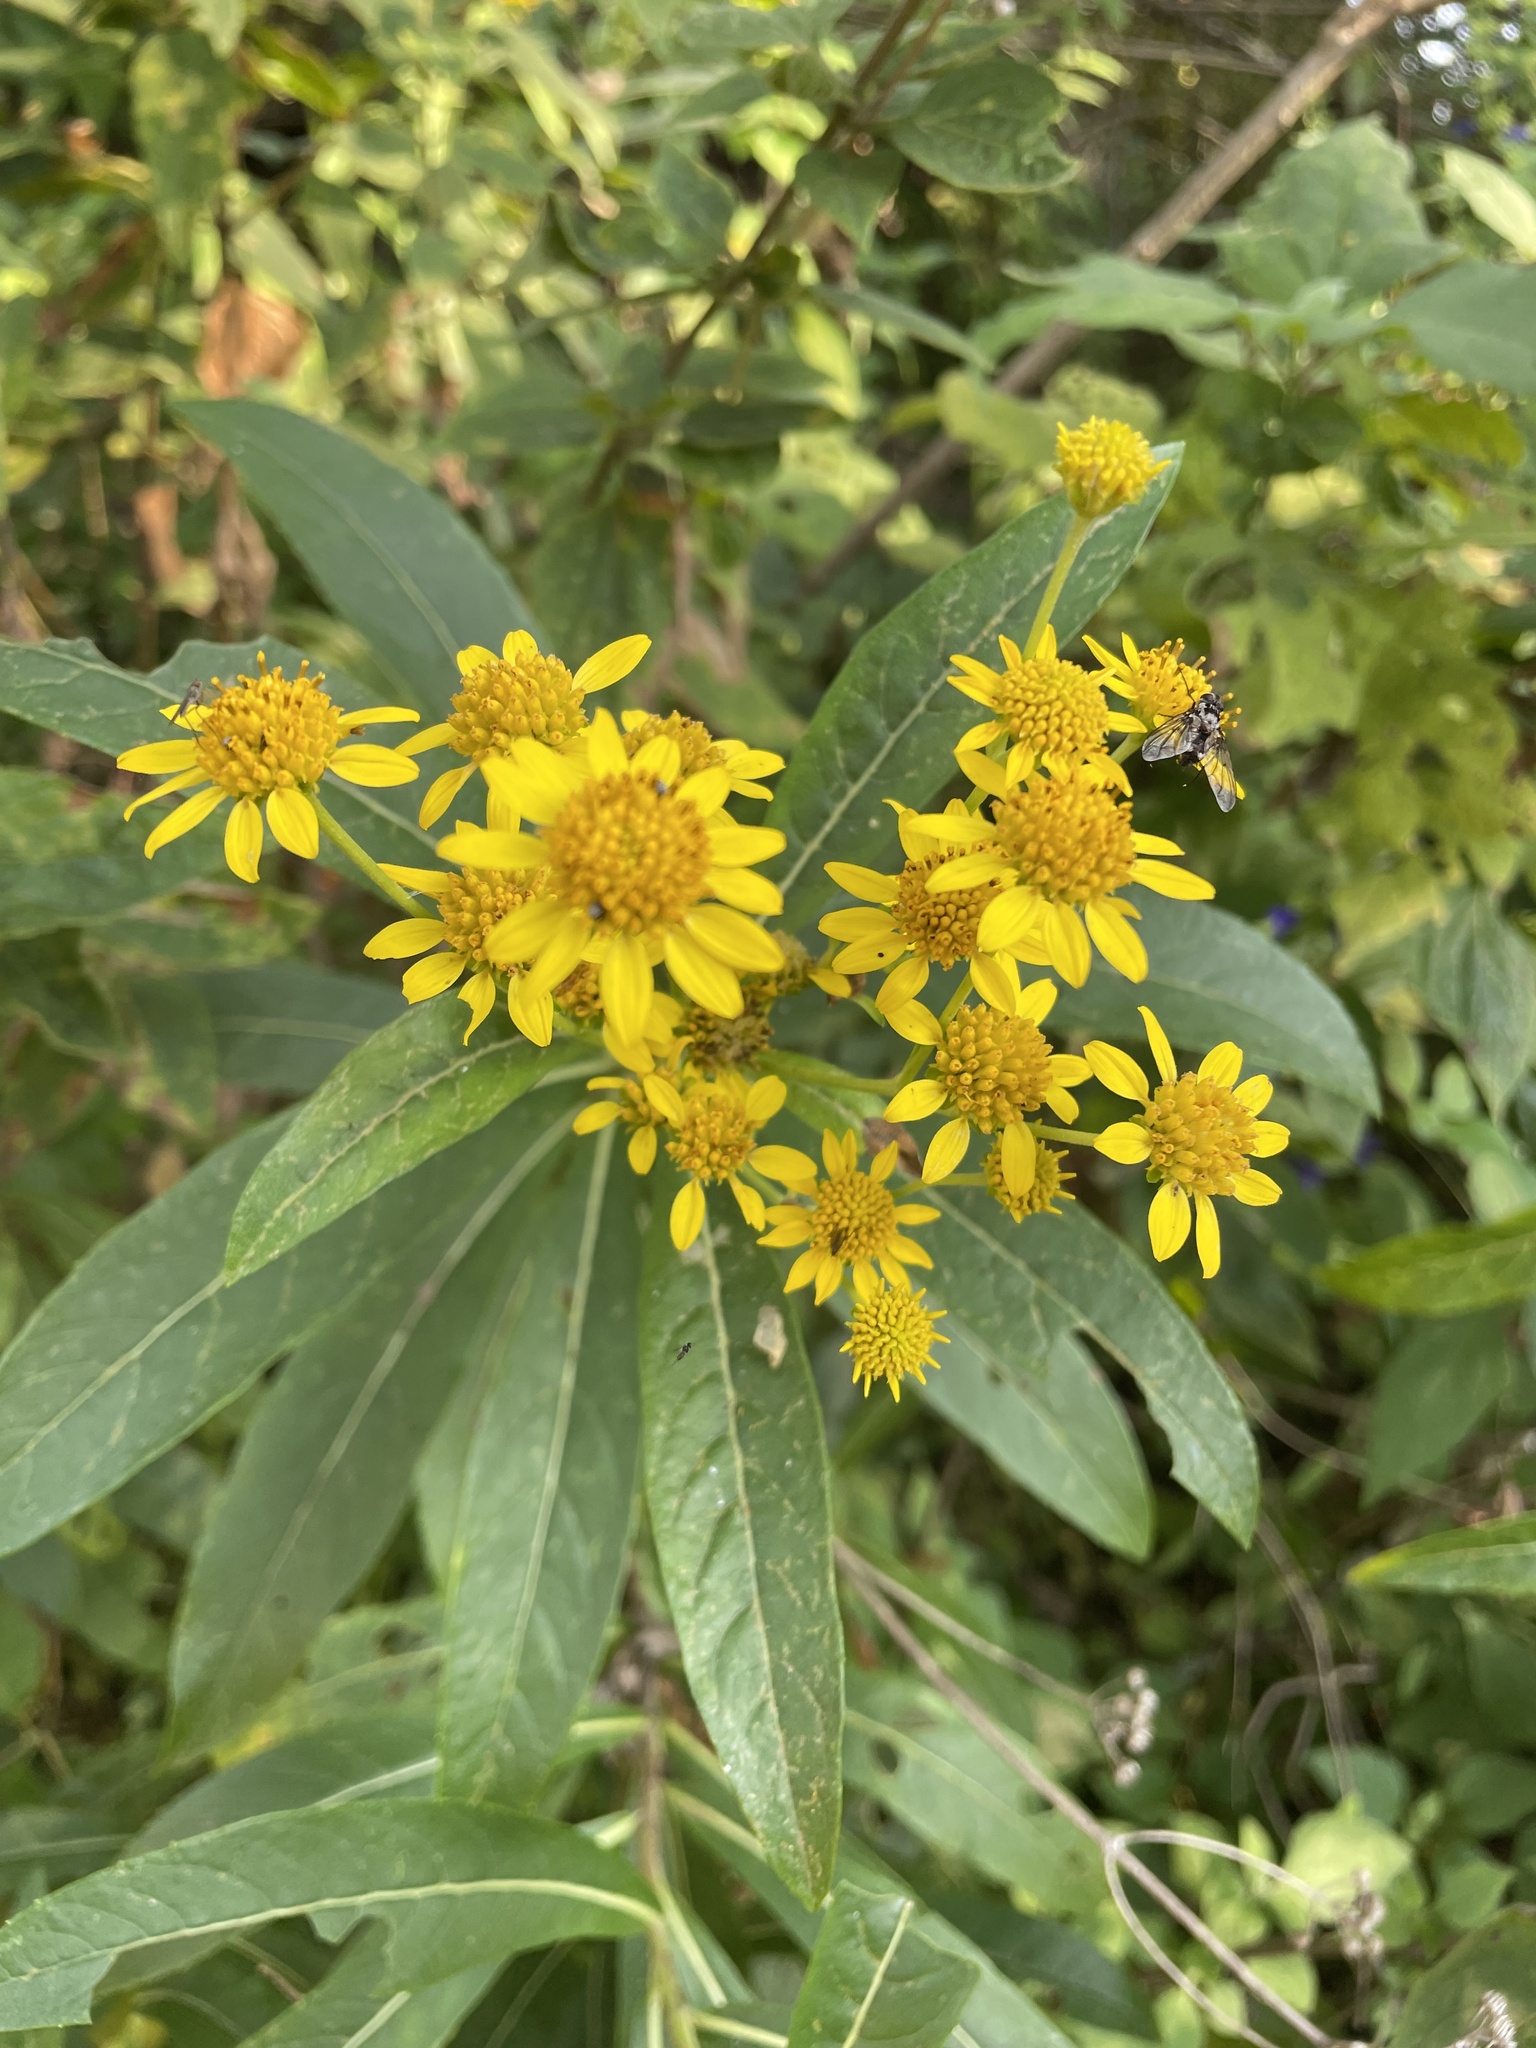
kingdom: Plantae
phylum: Tracheophyta
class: Magnoliopsida
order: Asterales
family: Asteraceae
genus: Verbesina
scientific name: Verbesina virgata
